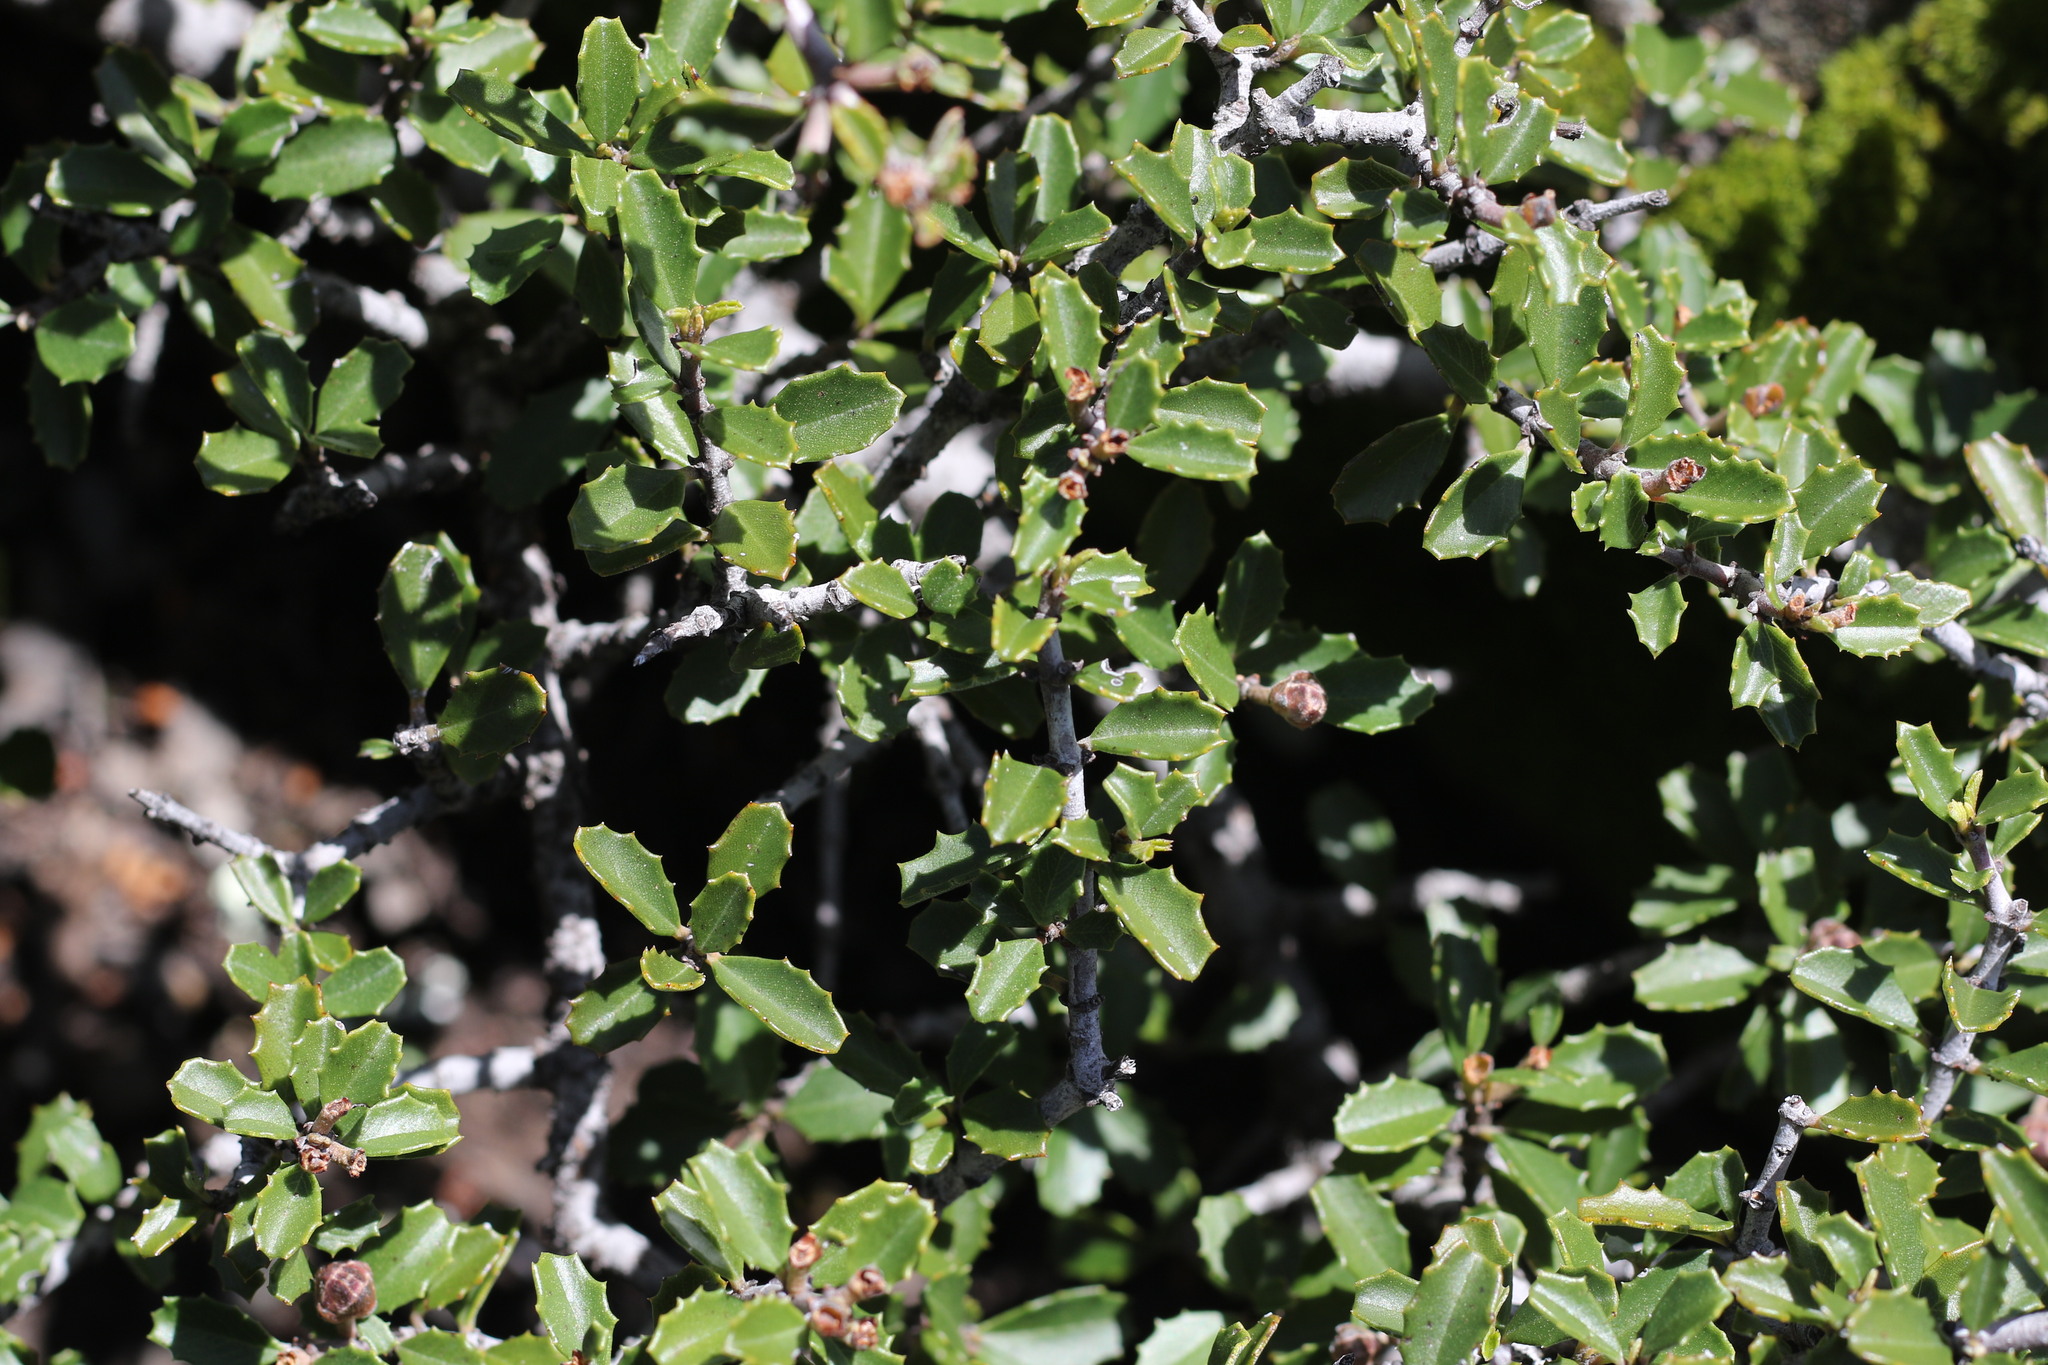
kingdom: Plantae
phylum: Tracheophyta
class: Magnoliopsida
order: Rosales
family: Rhamnaceae
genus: Ceanothus
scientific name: Ceanothus jepsonii
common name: Muskbrush
